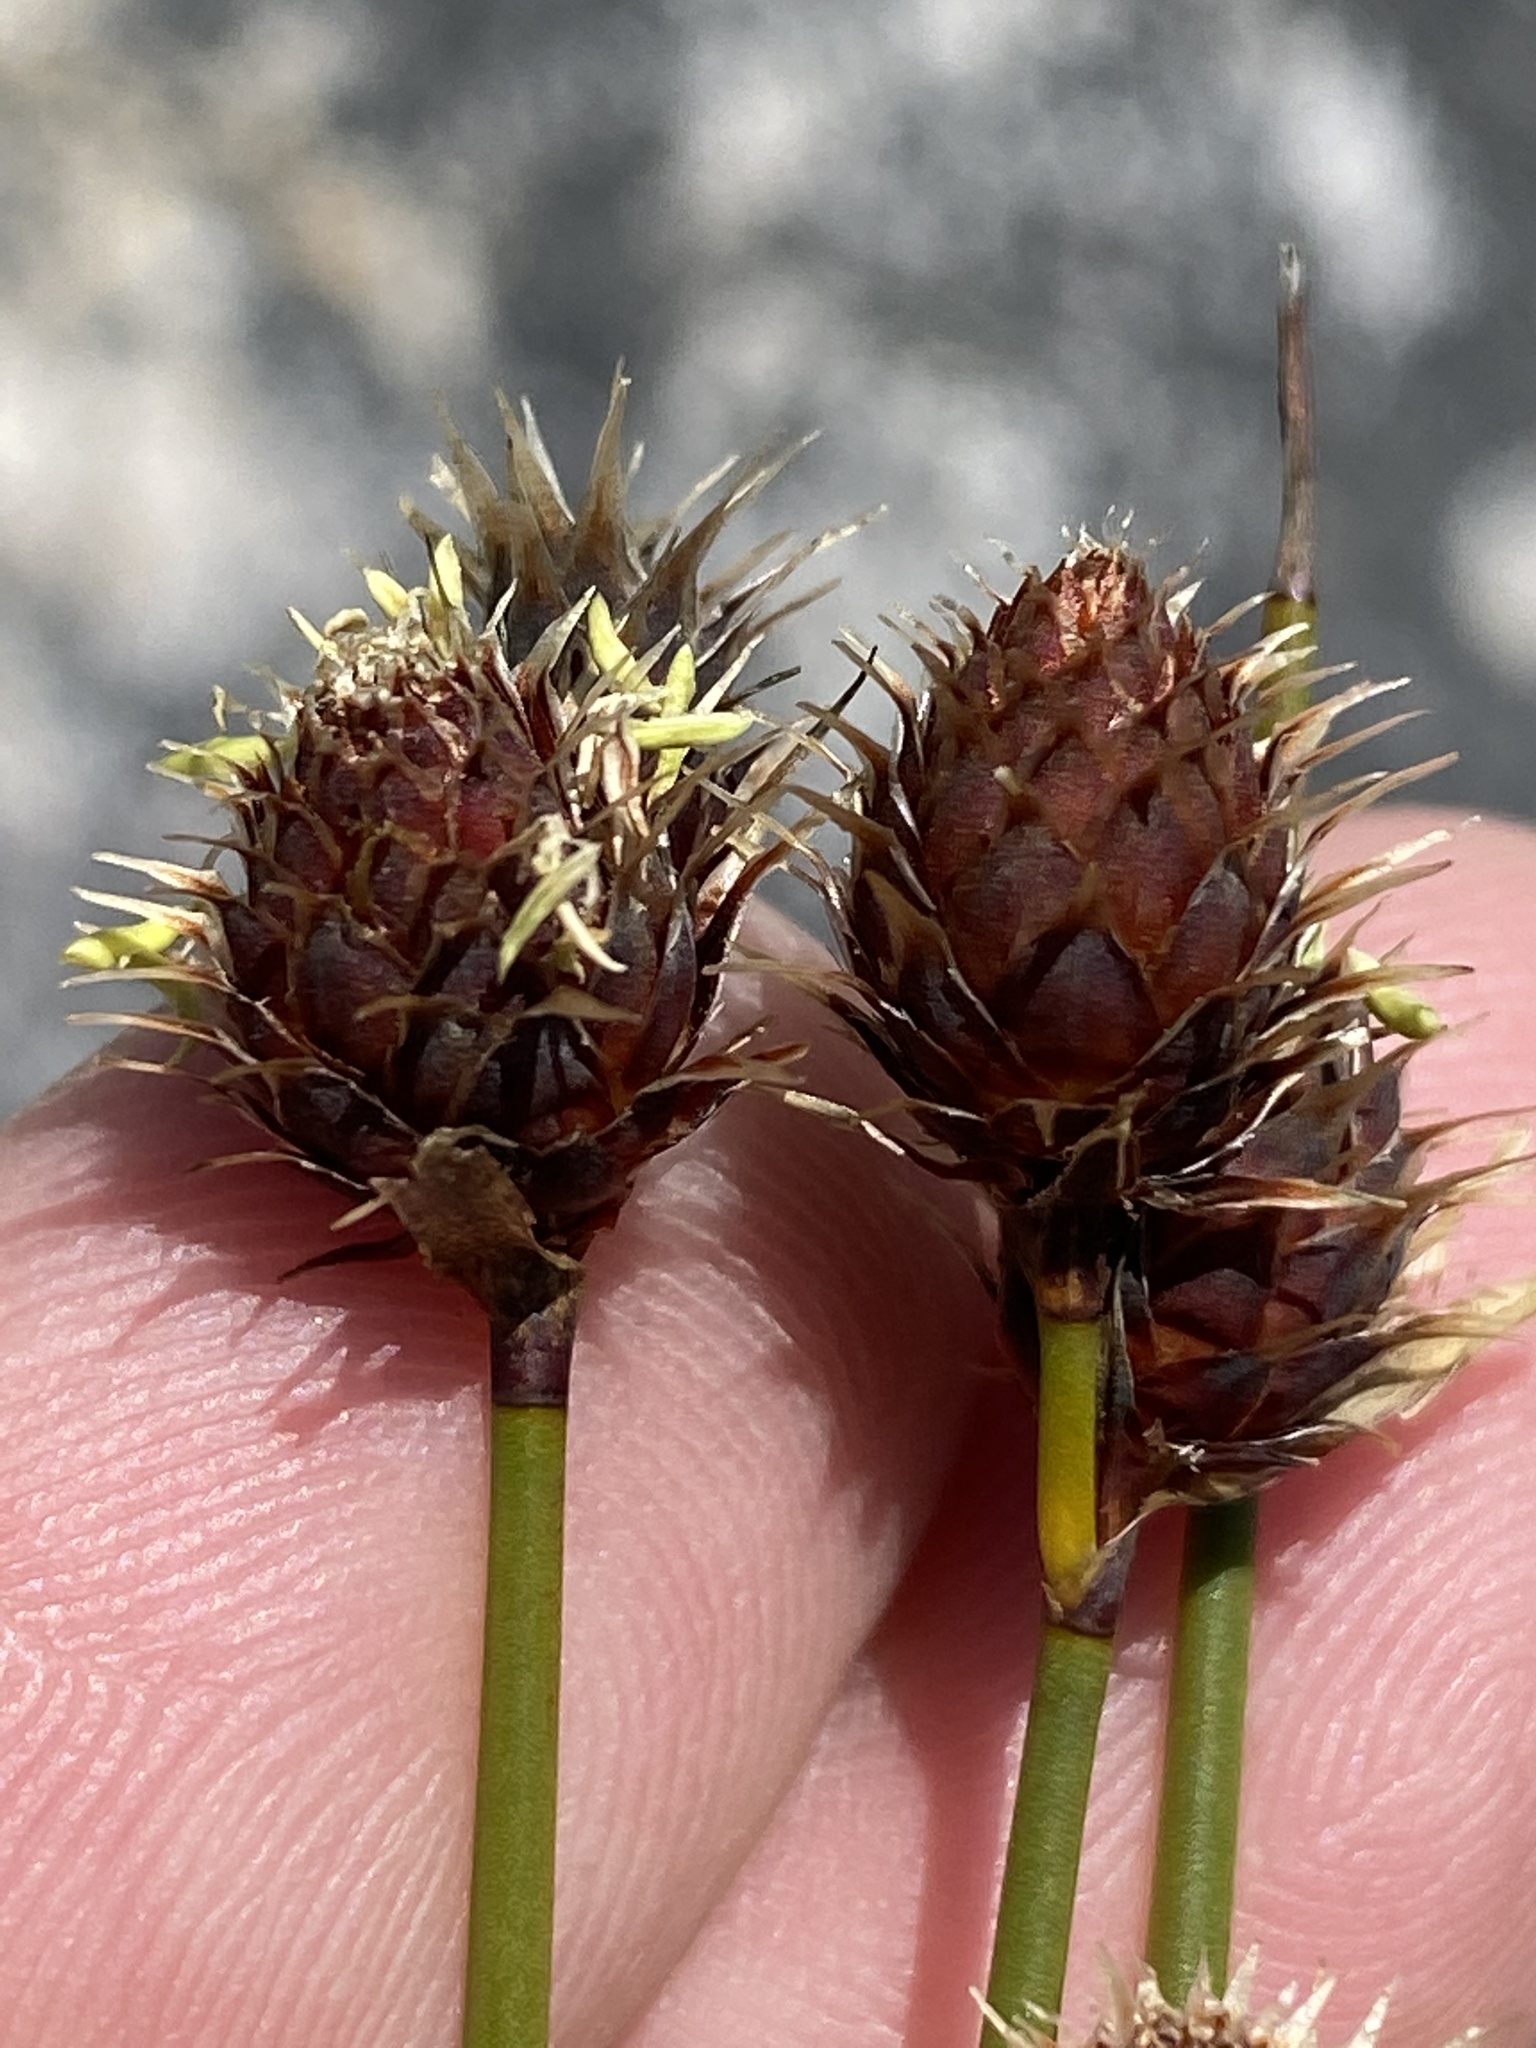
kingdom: Plantae
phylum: Tracheophyta
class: Liliopsida
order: Poales
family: Restionaceae
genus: Hypodiscus
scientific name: Hypodiscus aristatus
